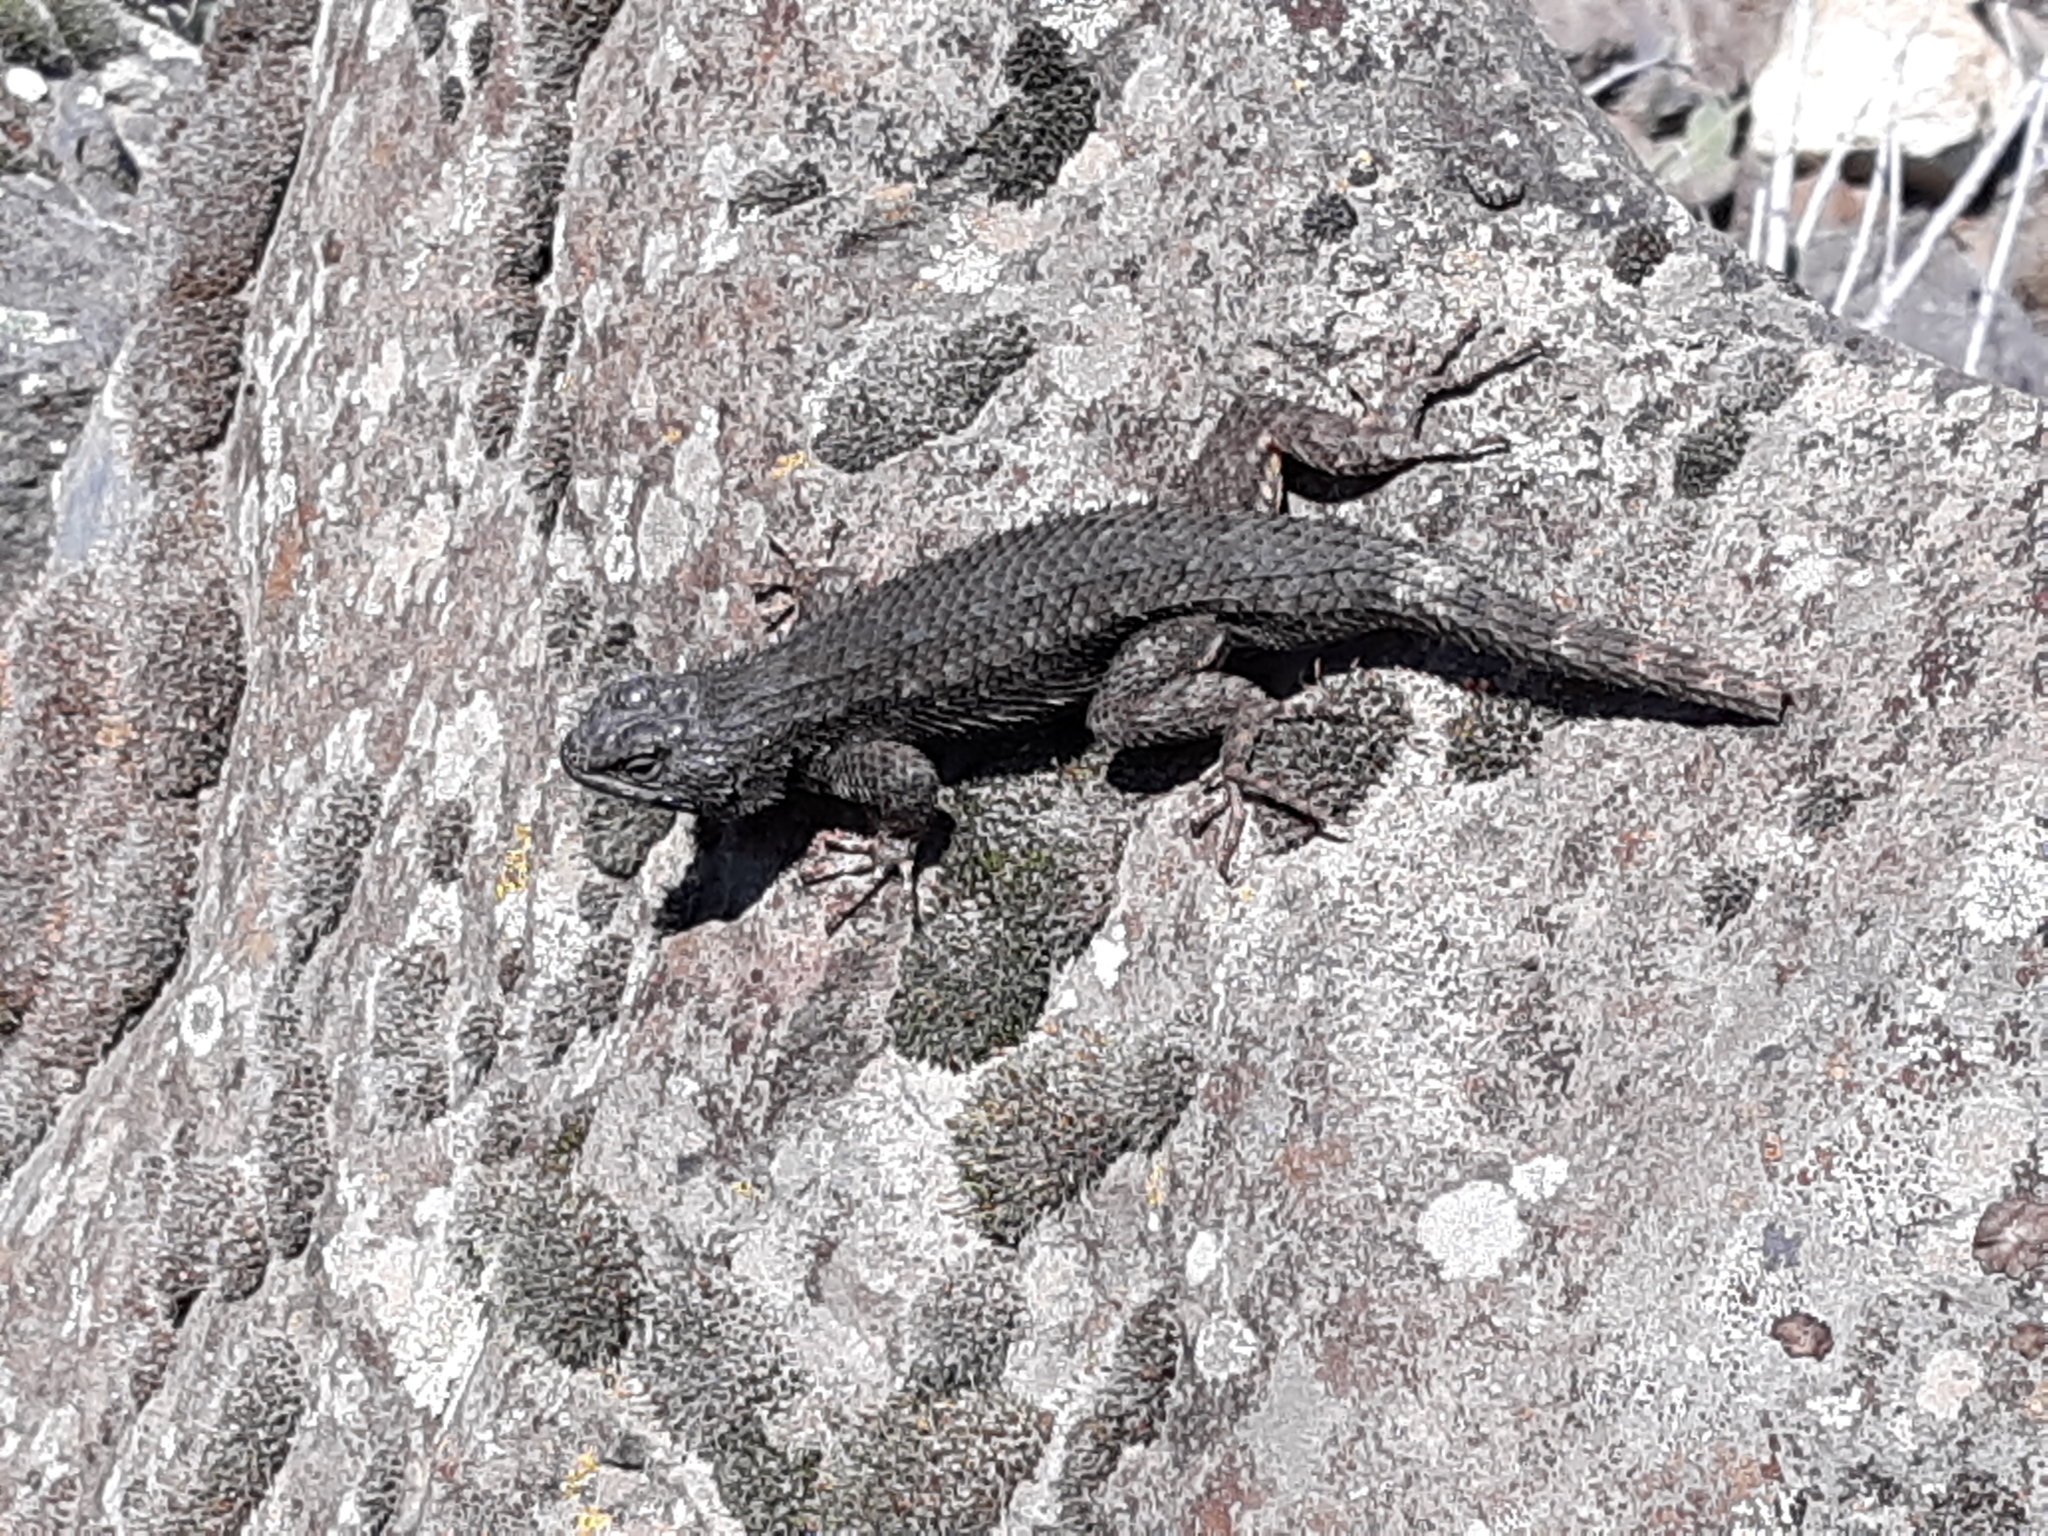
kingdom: Animalia
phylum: Chordata
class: Squamata
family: Phrynosomatidae
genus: Sceloporus
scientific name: Sceloporus occidentalis
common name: Western fence lizard
